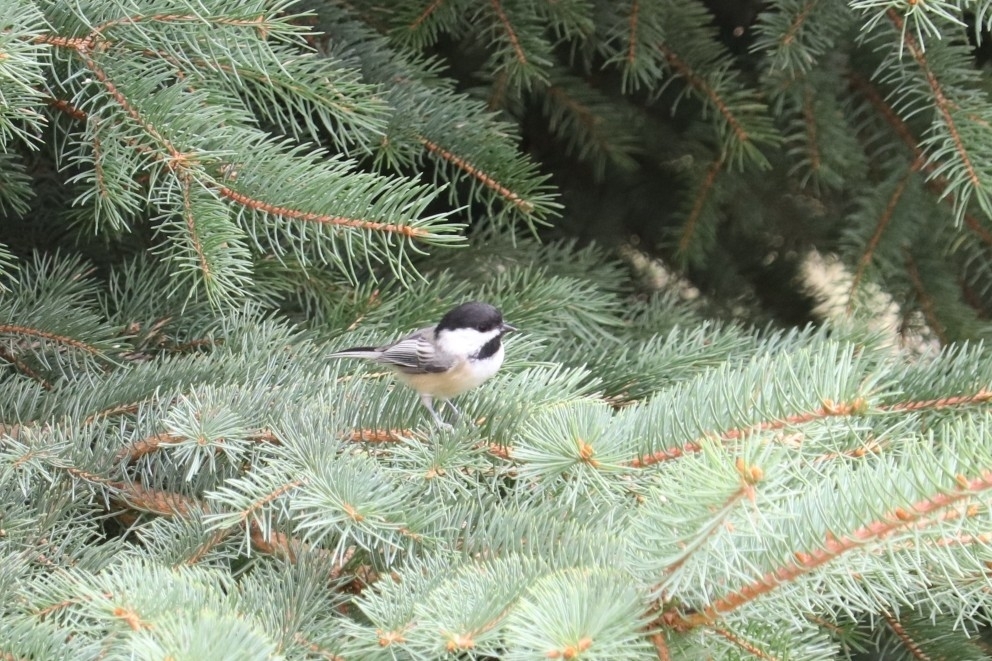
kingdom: Animalia
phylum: Chordata
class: Aves
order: Passeriformes
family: Paridae
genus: Poecile
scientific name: Poecile atricapillus
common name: Black-capped chickadee
